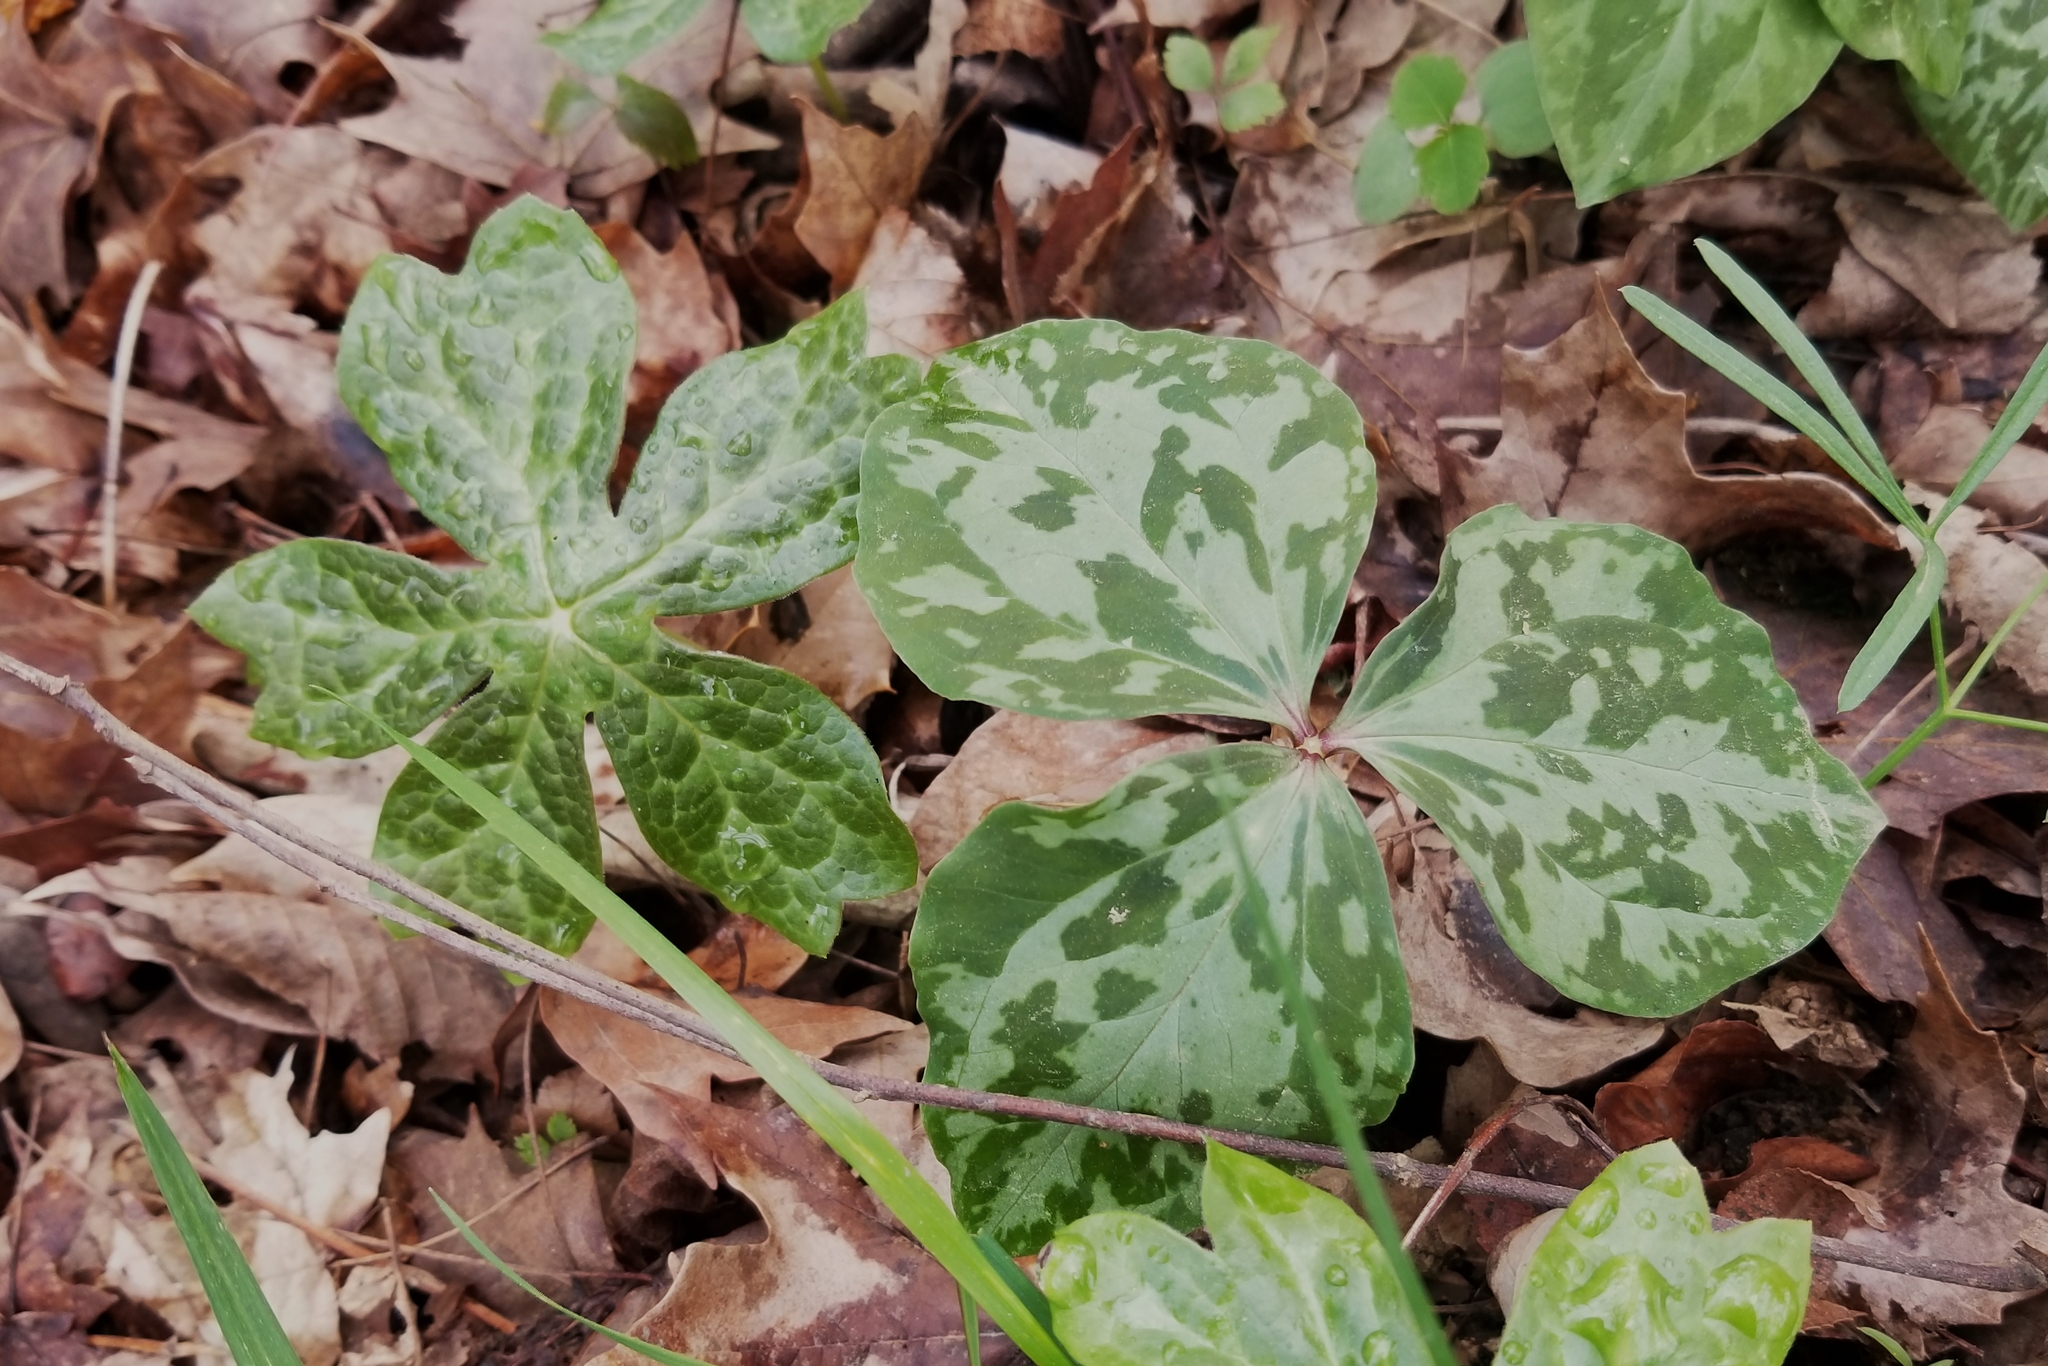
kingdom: Plantae
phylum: Tracheophyta
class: Magnoliopsida
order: Ranunculales
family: Berberidaceae
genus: Podophyllum
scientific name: Podophyllum peltatum
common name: Wild mandrake
